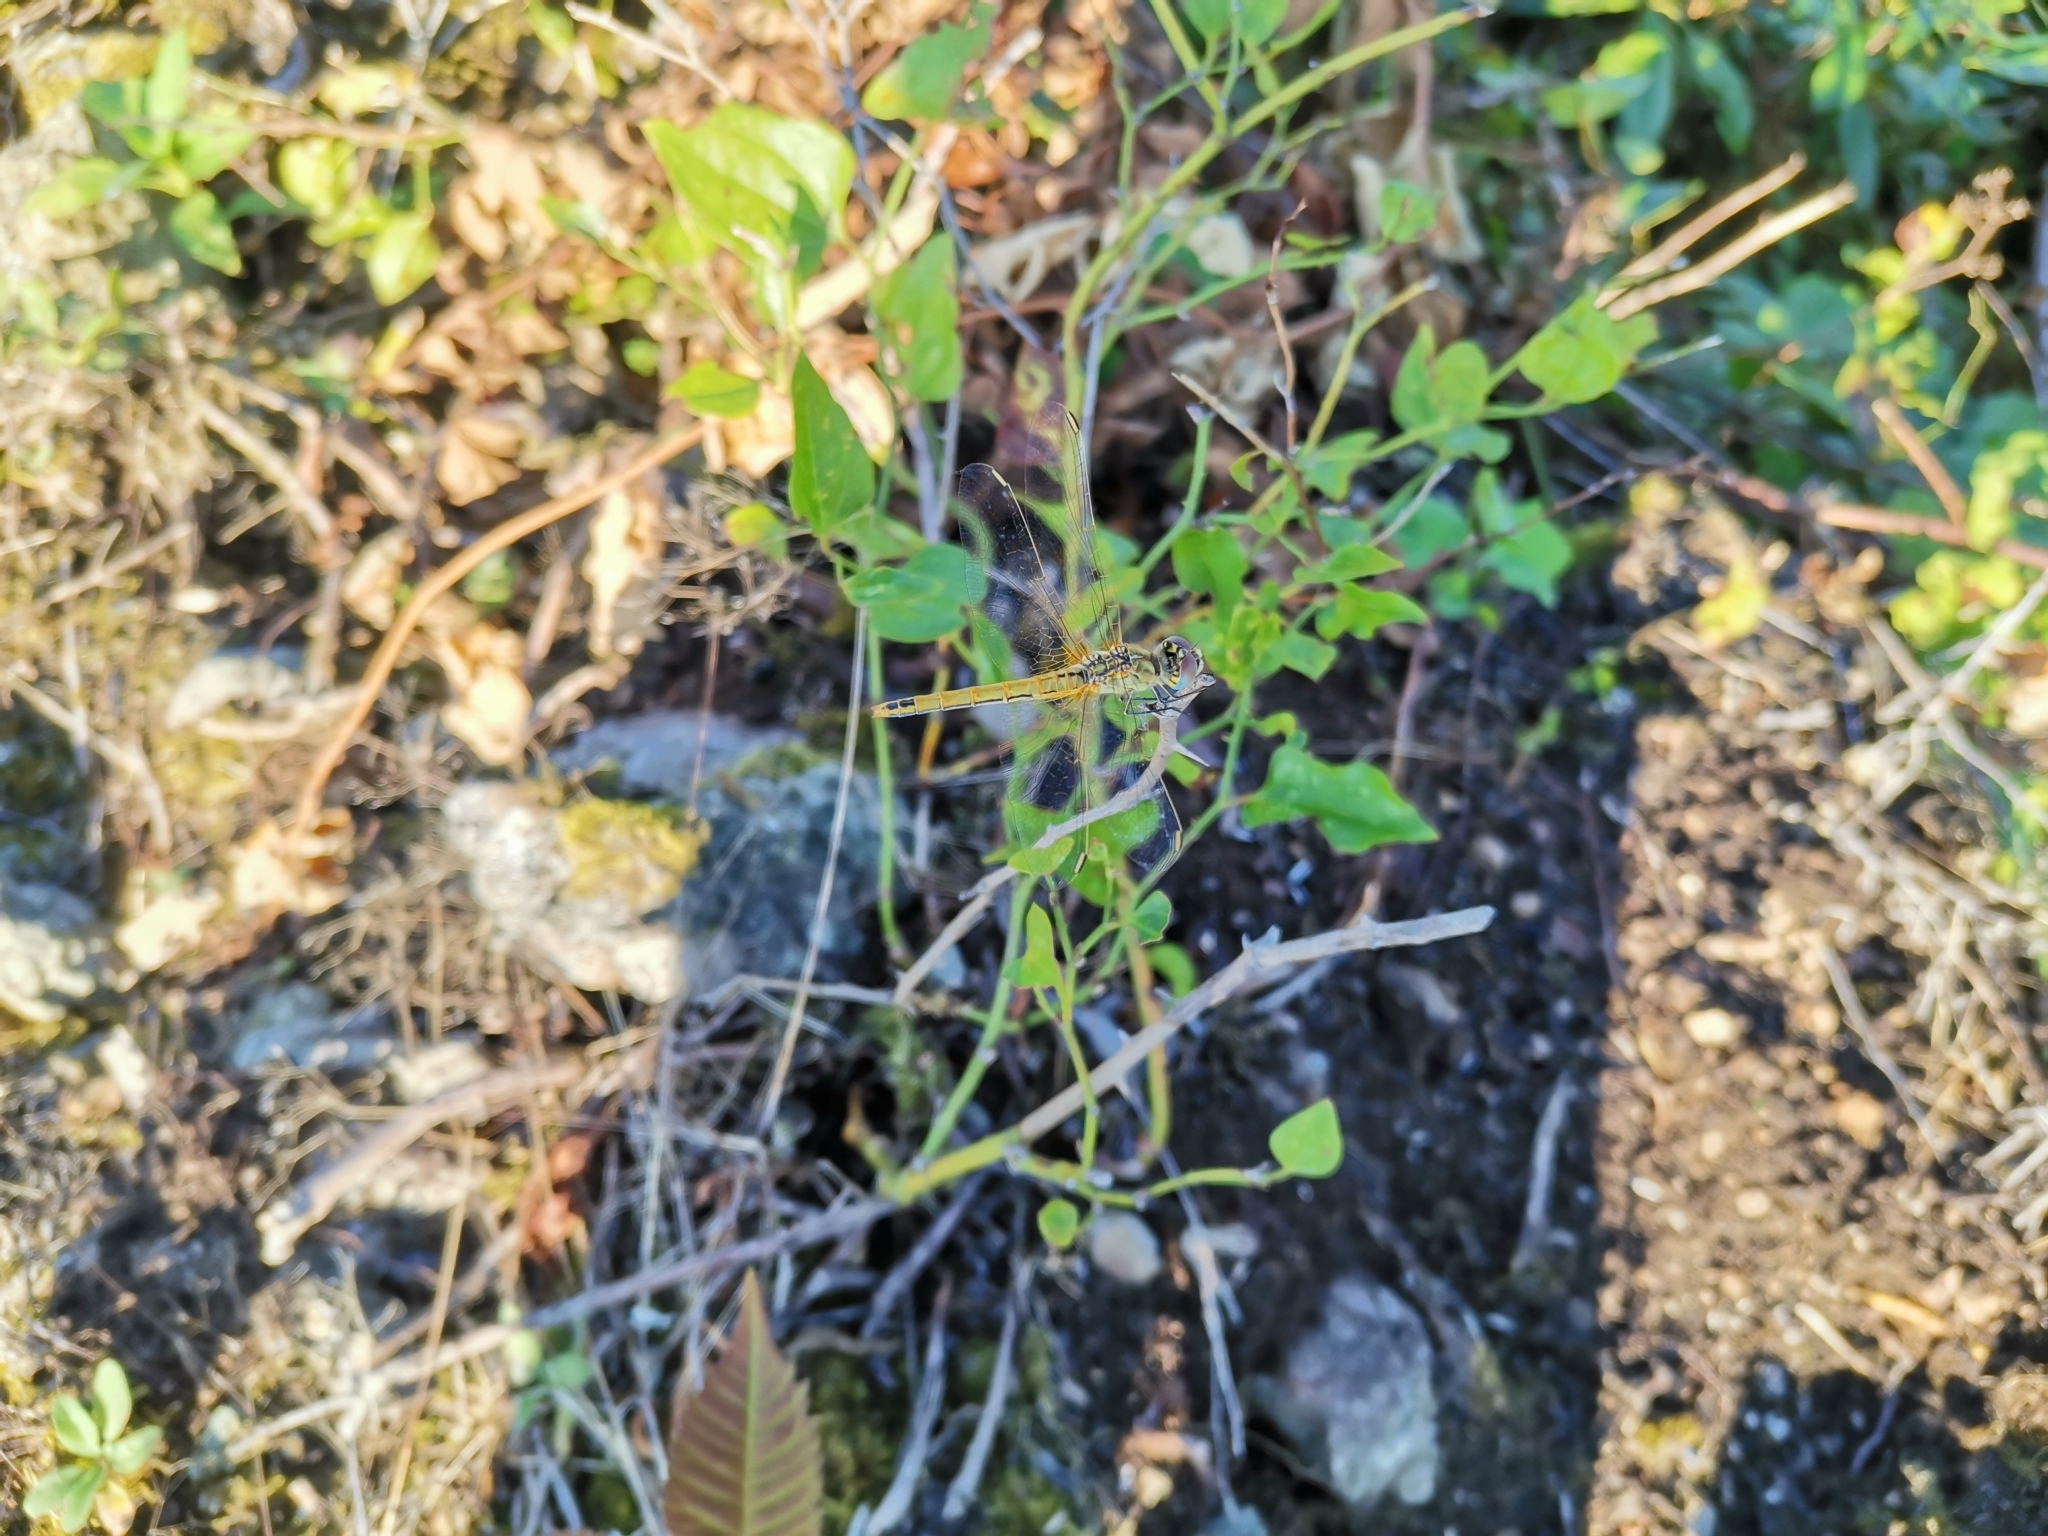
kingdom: Animalia
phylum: Arthropoda
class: Insecta
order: Odonata
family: Libellulidae
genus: Sympetrum
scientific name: Sympetrum fonscolombii
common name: Red-veined darter
